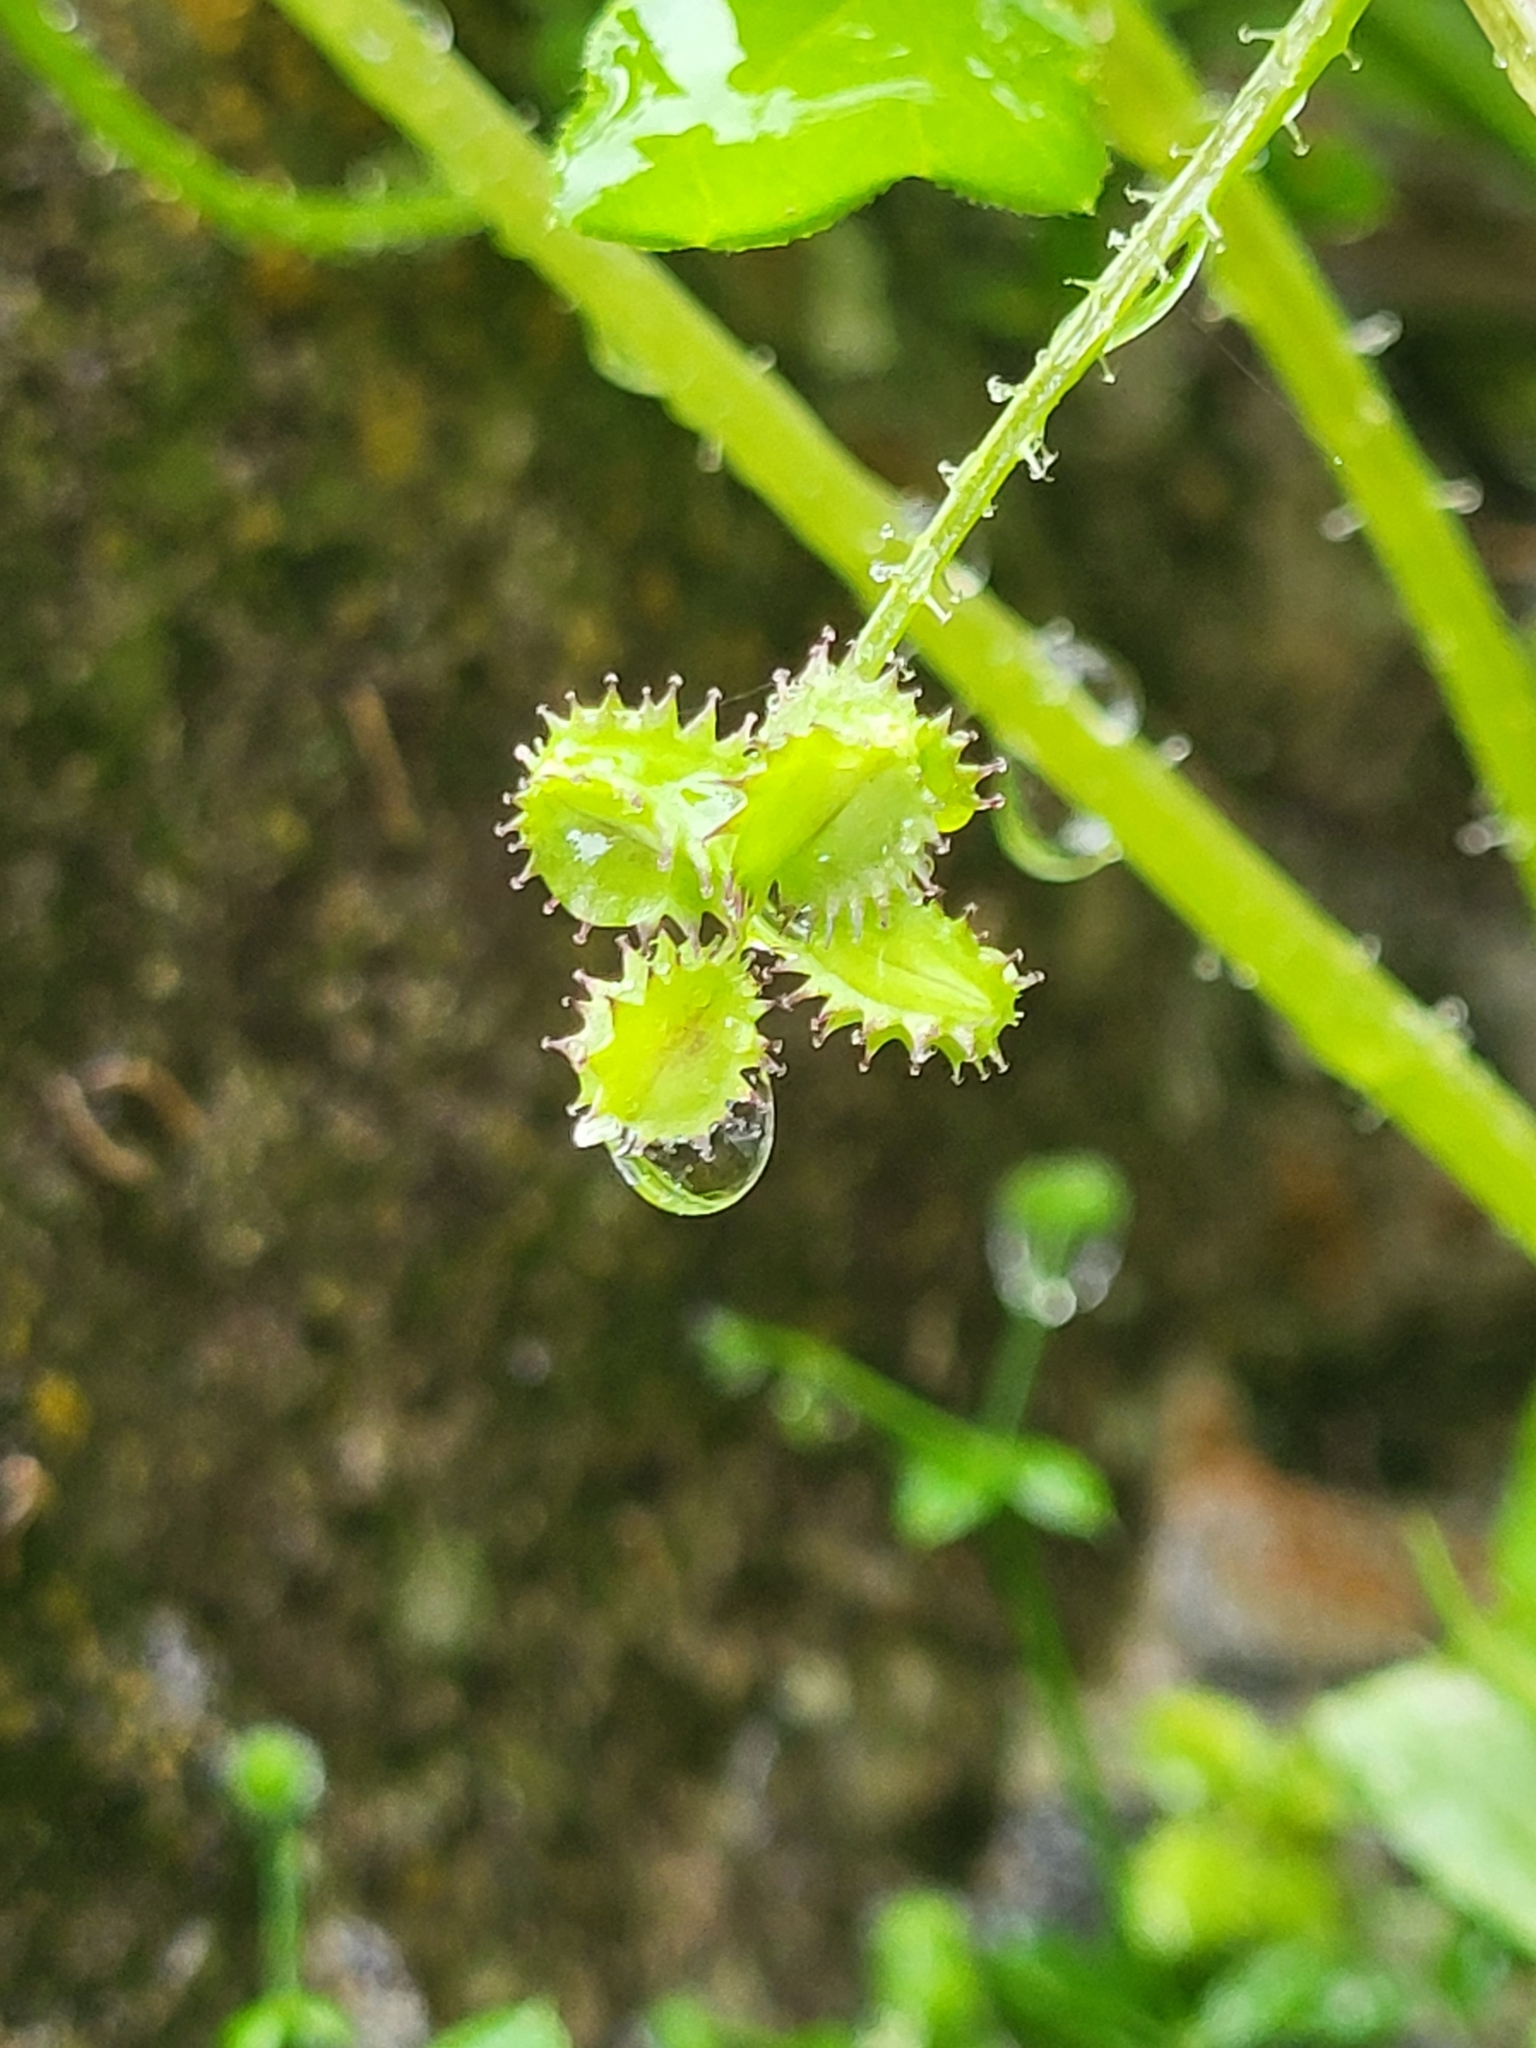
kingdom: Plantae
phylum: Tracheophyta
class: Magnoliopsida
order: Apiales
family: Apiaceae
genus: Drusa
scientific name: Drusa glandulosa
